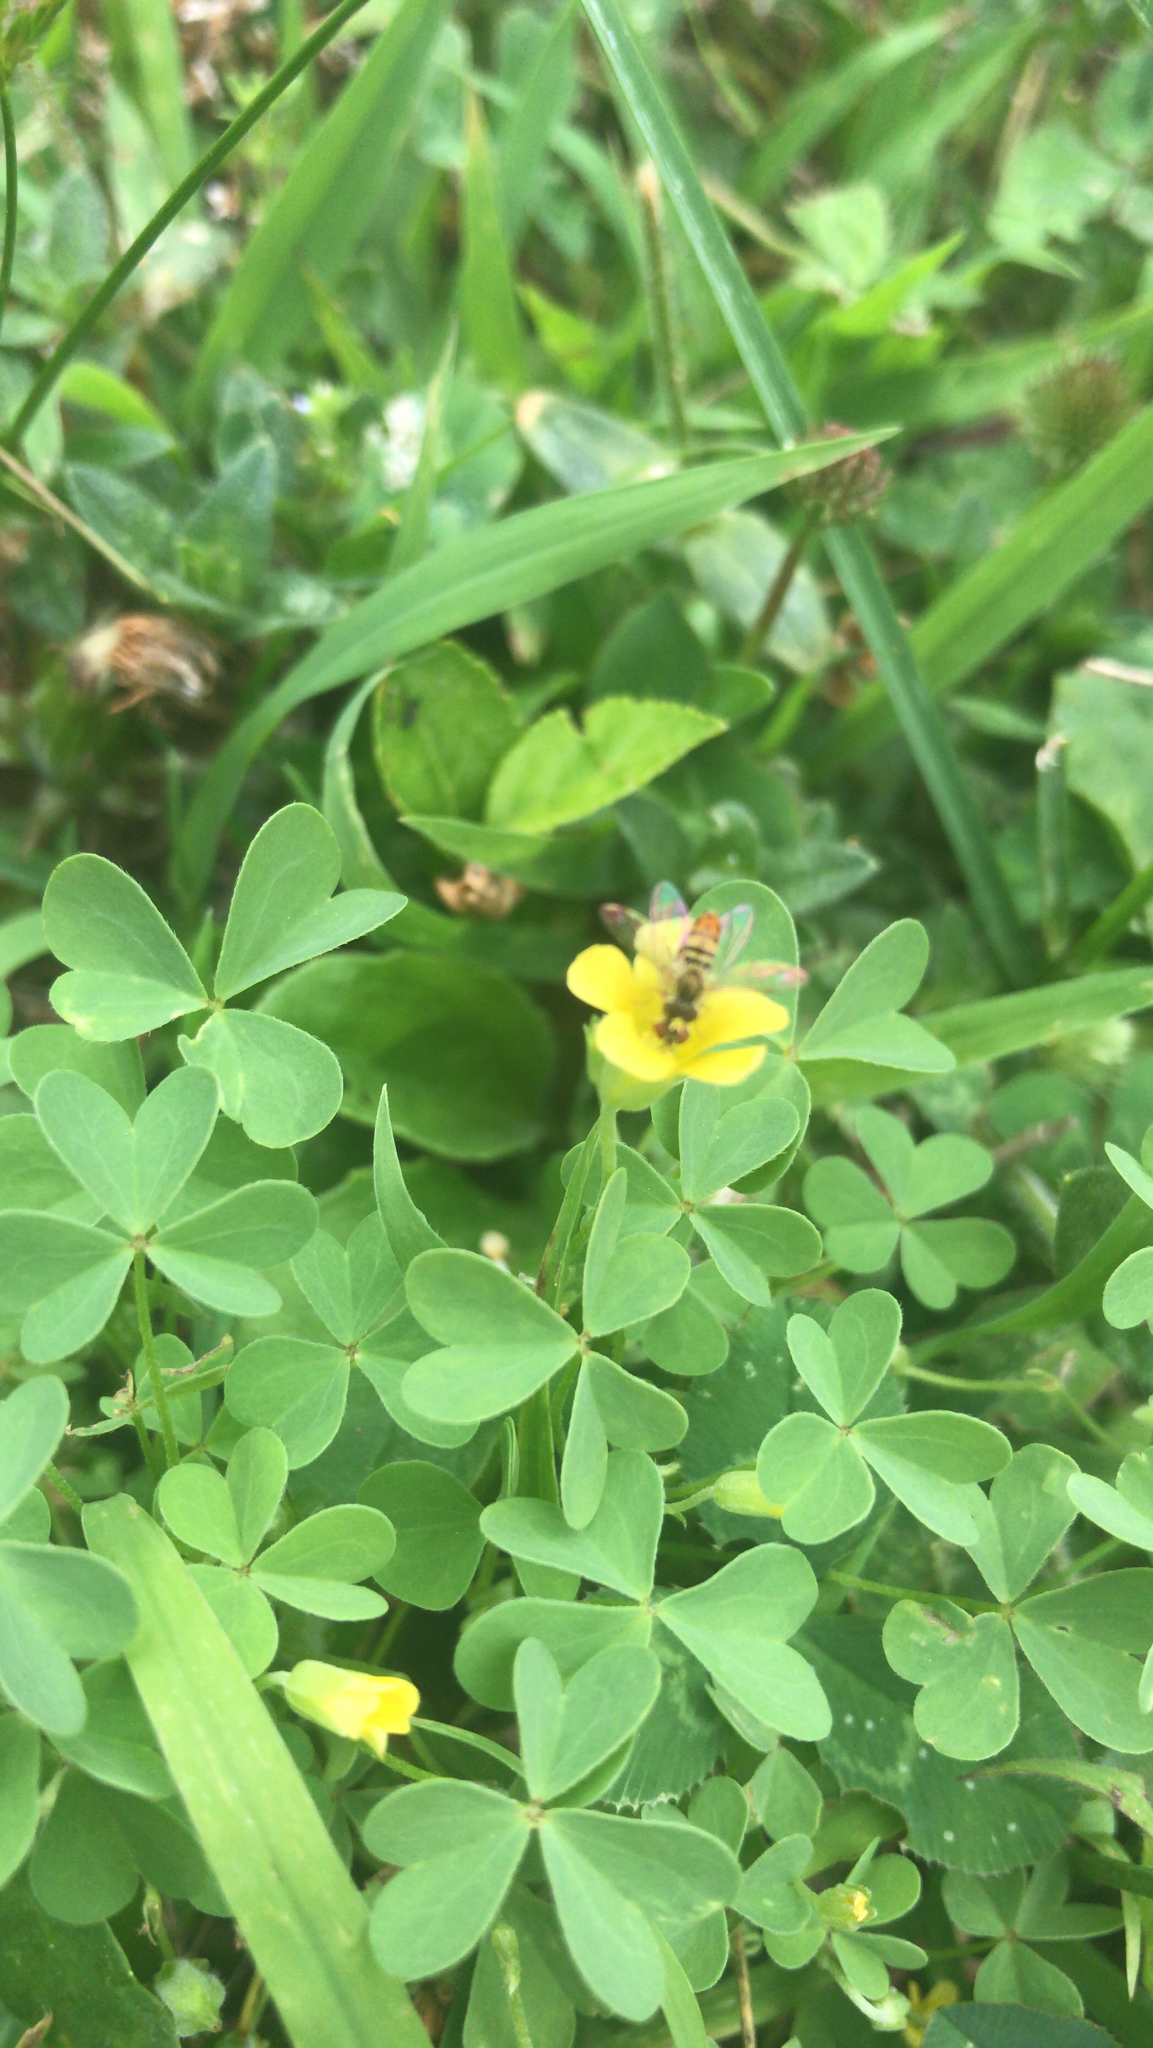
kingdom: Animalia
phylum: Arthropoda
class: Insecta
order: Diptera
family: Syrphidae
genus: Toxomerus
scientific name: Toxomerus marginatus
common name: Syrphid fly
